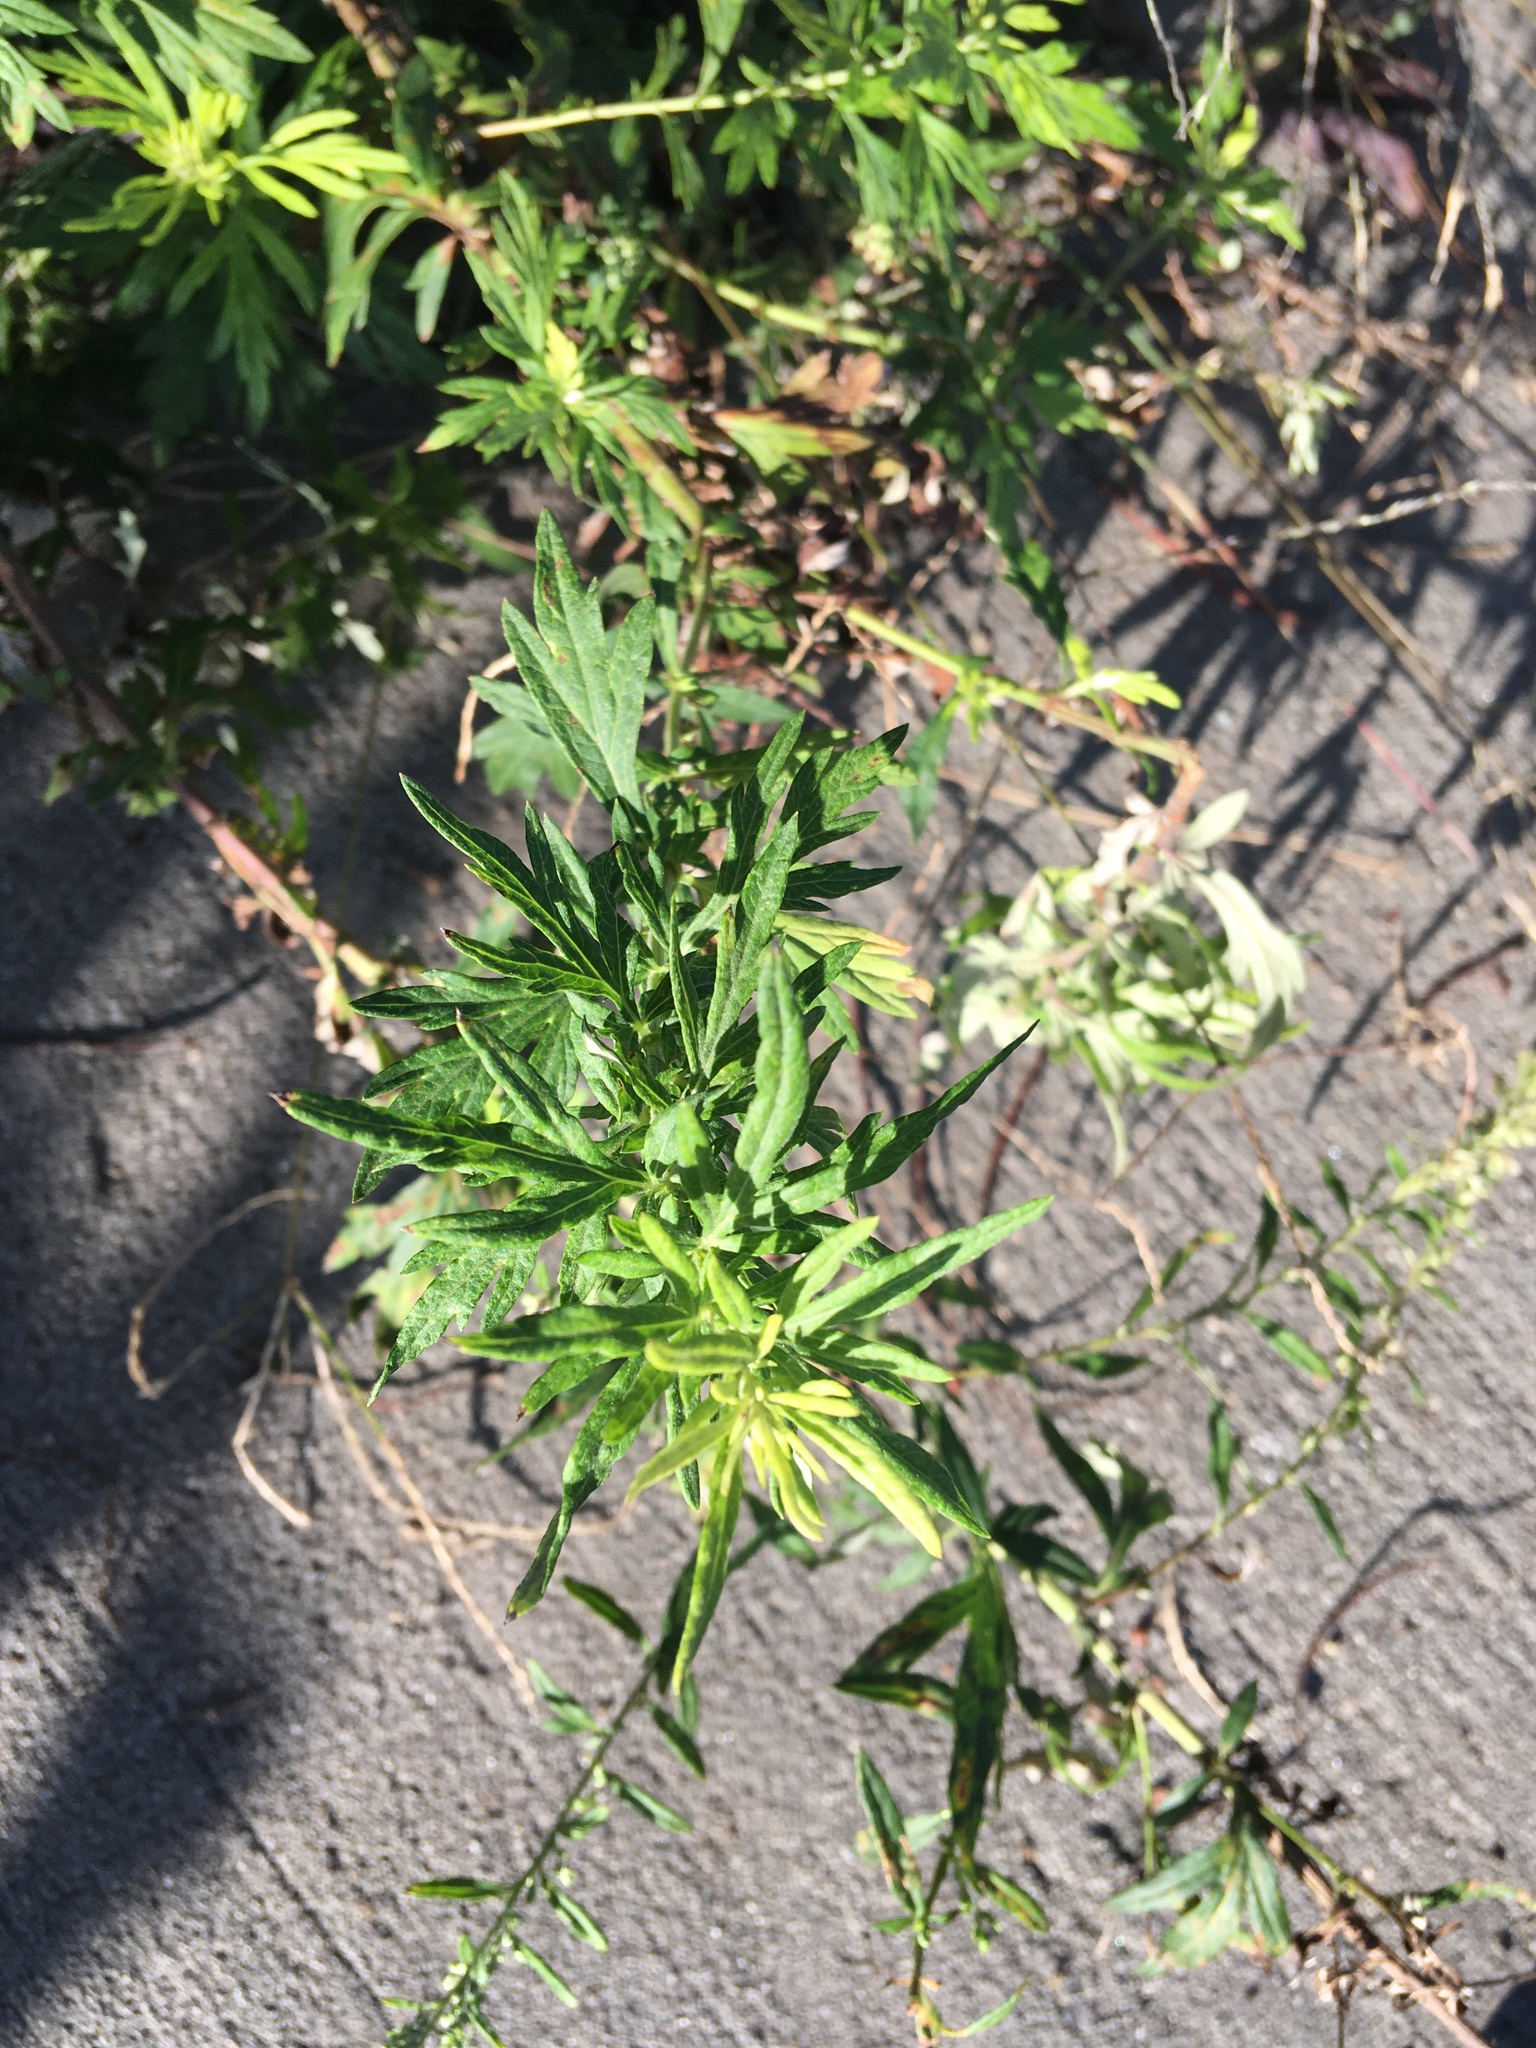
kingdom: Plantae
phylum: Tracheophyta
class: Magnoliopsida
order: Asterales
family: Asteraceae
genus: Artemisia
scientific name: Artemisia vulgaris
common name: Mugwort
